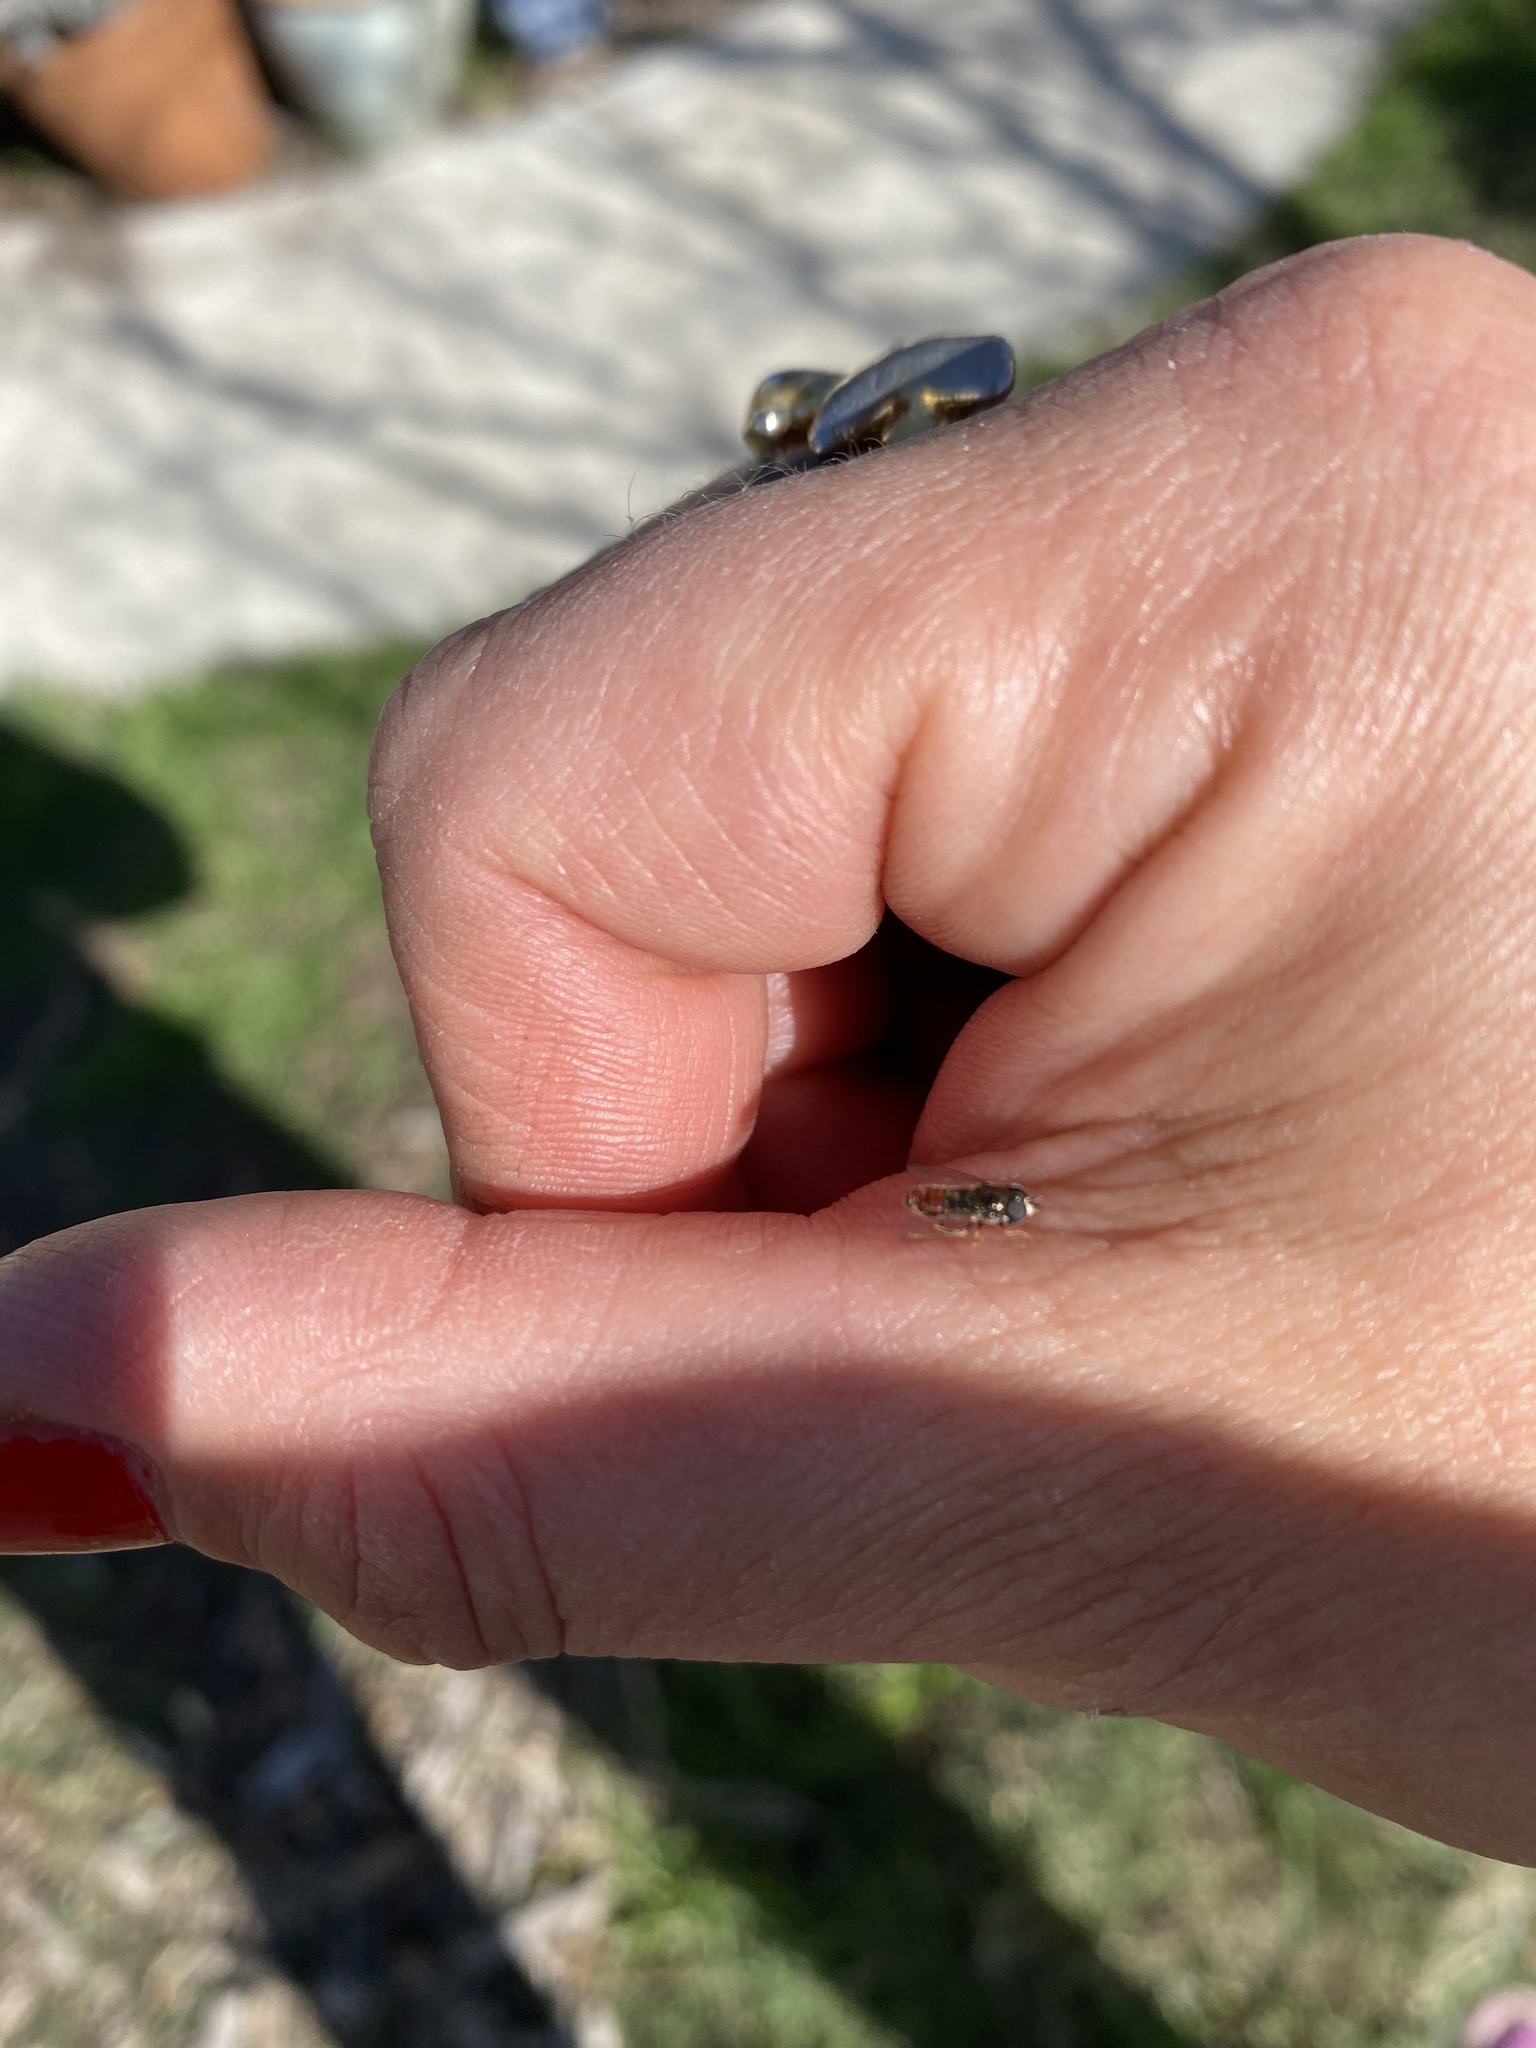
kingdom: Animalia
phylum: Arthropoda
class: Insecta
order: Diptera
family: Syrphidae
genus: Paragus
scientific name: Paragus haemorrhous
